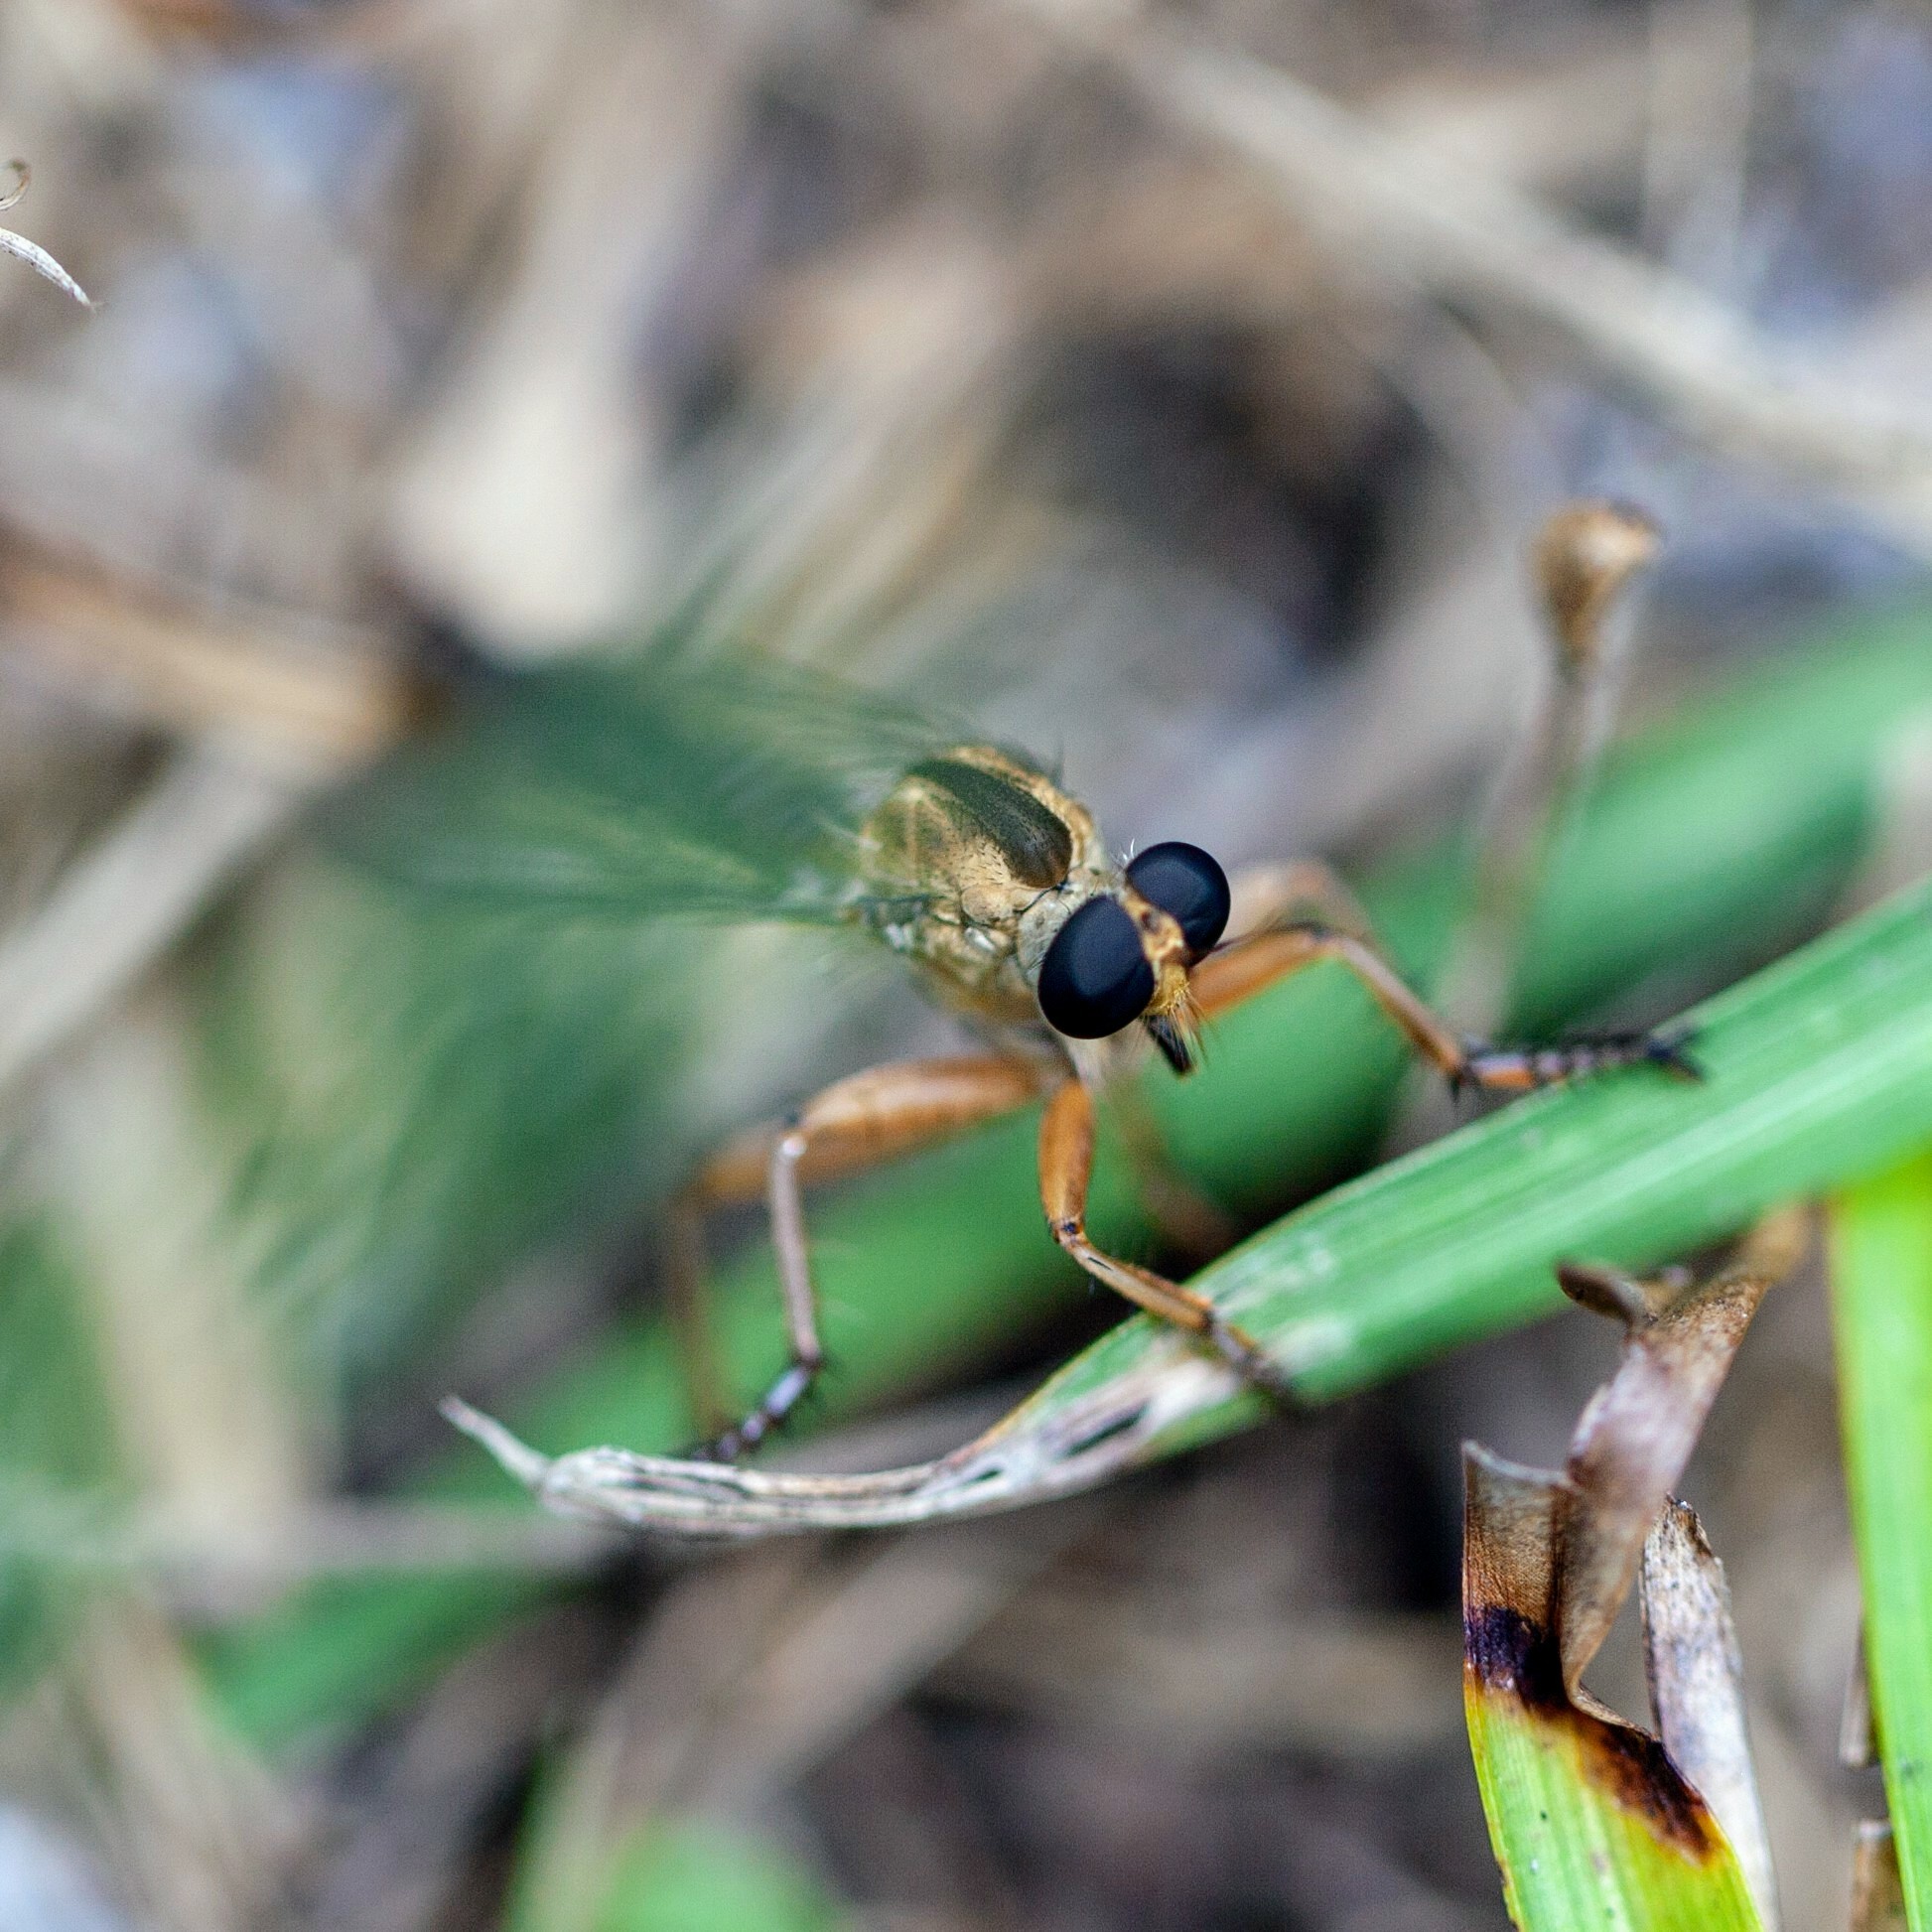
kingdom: Animalia
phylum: Arthropoda
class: Insecta
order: Diptera
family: Asilidae
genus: Polacantha
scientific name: Polacantha gracilis
